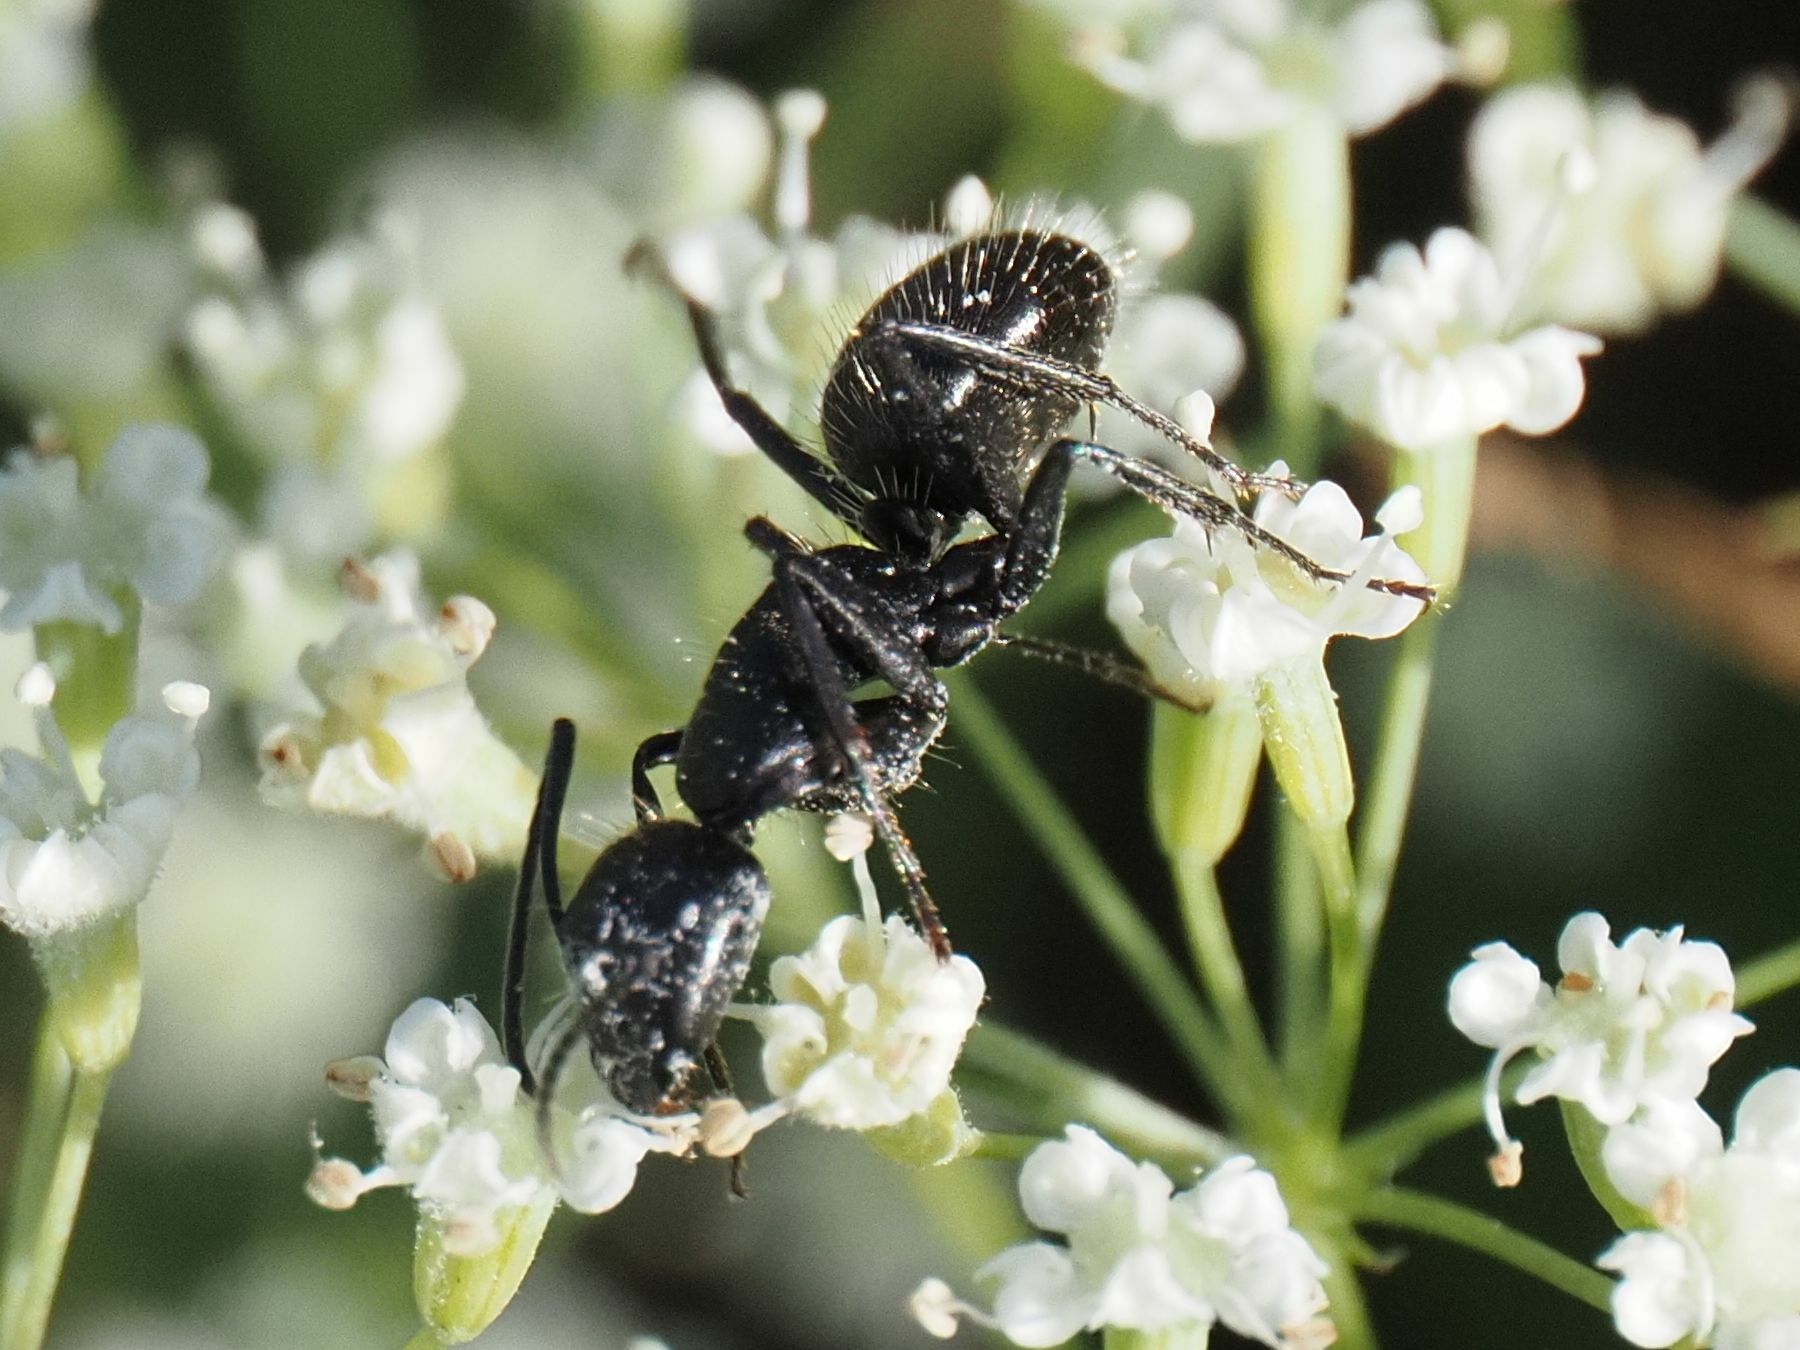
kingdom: Animalia
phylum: Arthropoda
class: Insecta
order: Hymenoptera
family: Formicidae
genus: Camponotus
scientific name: Camponotus vagus
